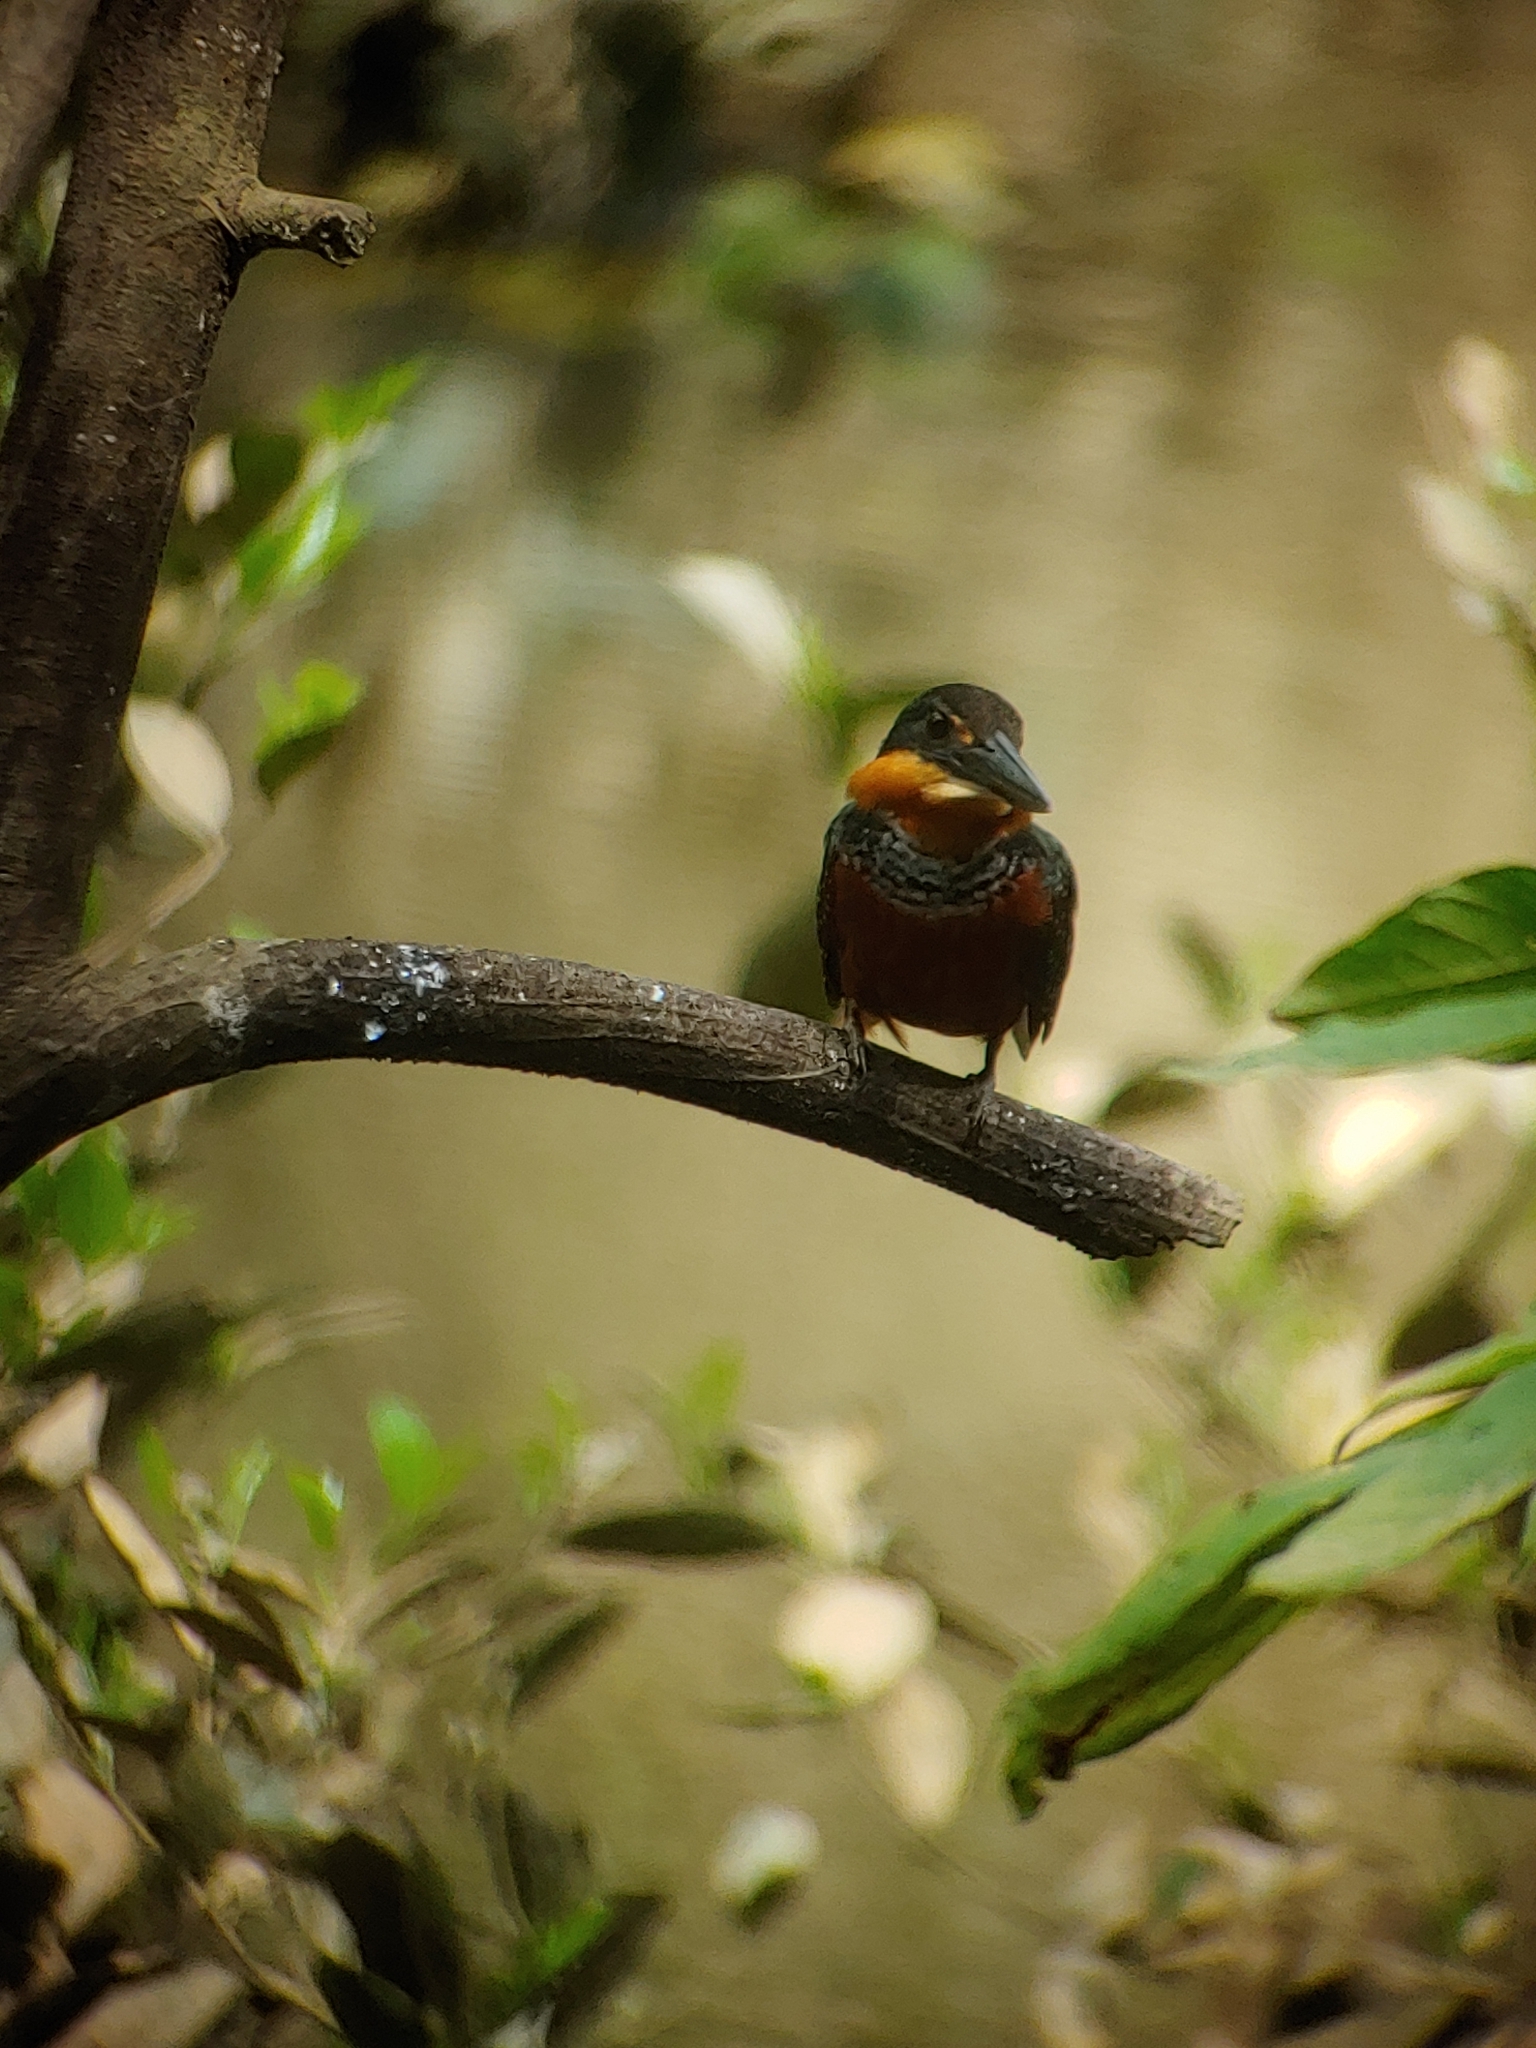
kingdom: Animalia
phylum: Chordata
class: Aves
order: Coraciiformes
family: Alcedinidae
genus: Chloroceryle
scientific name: Chloroceryle inda
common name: Green-and-rufous kingfisher
